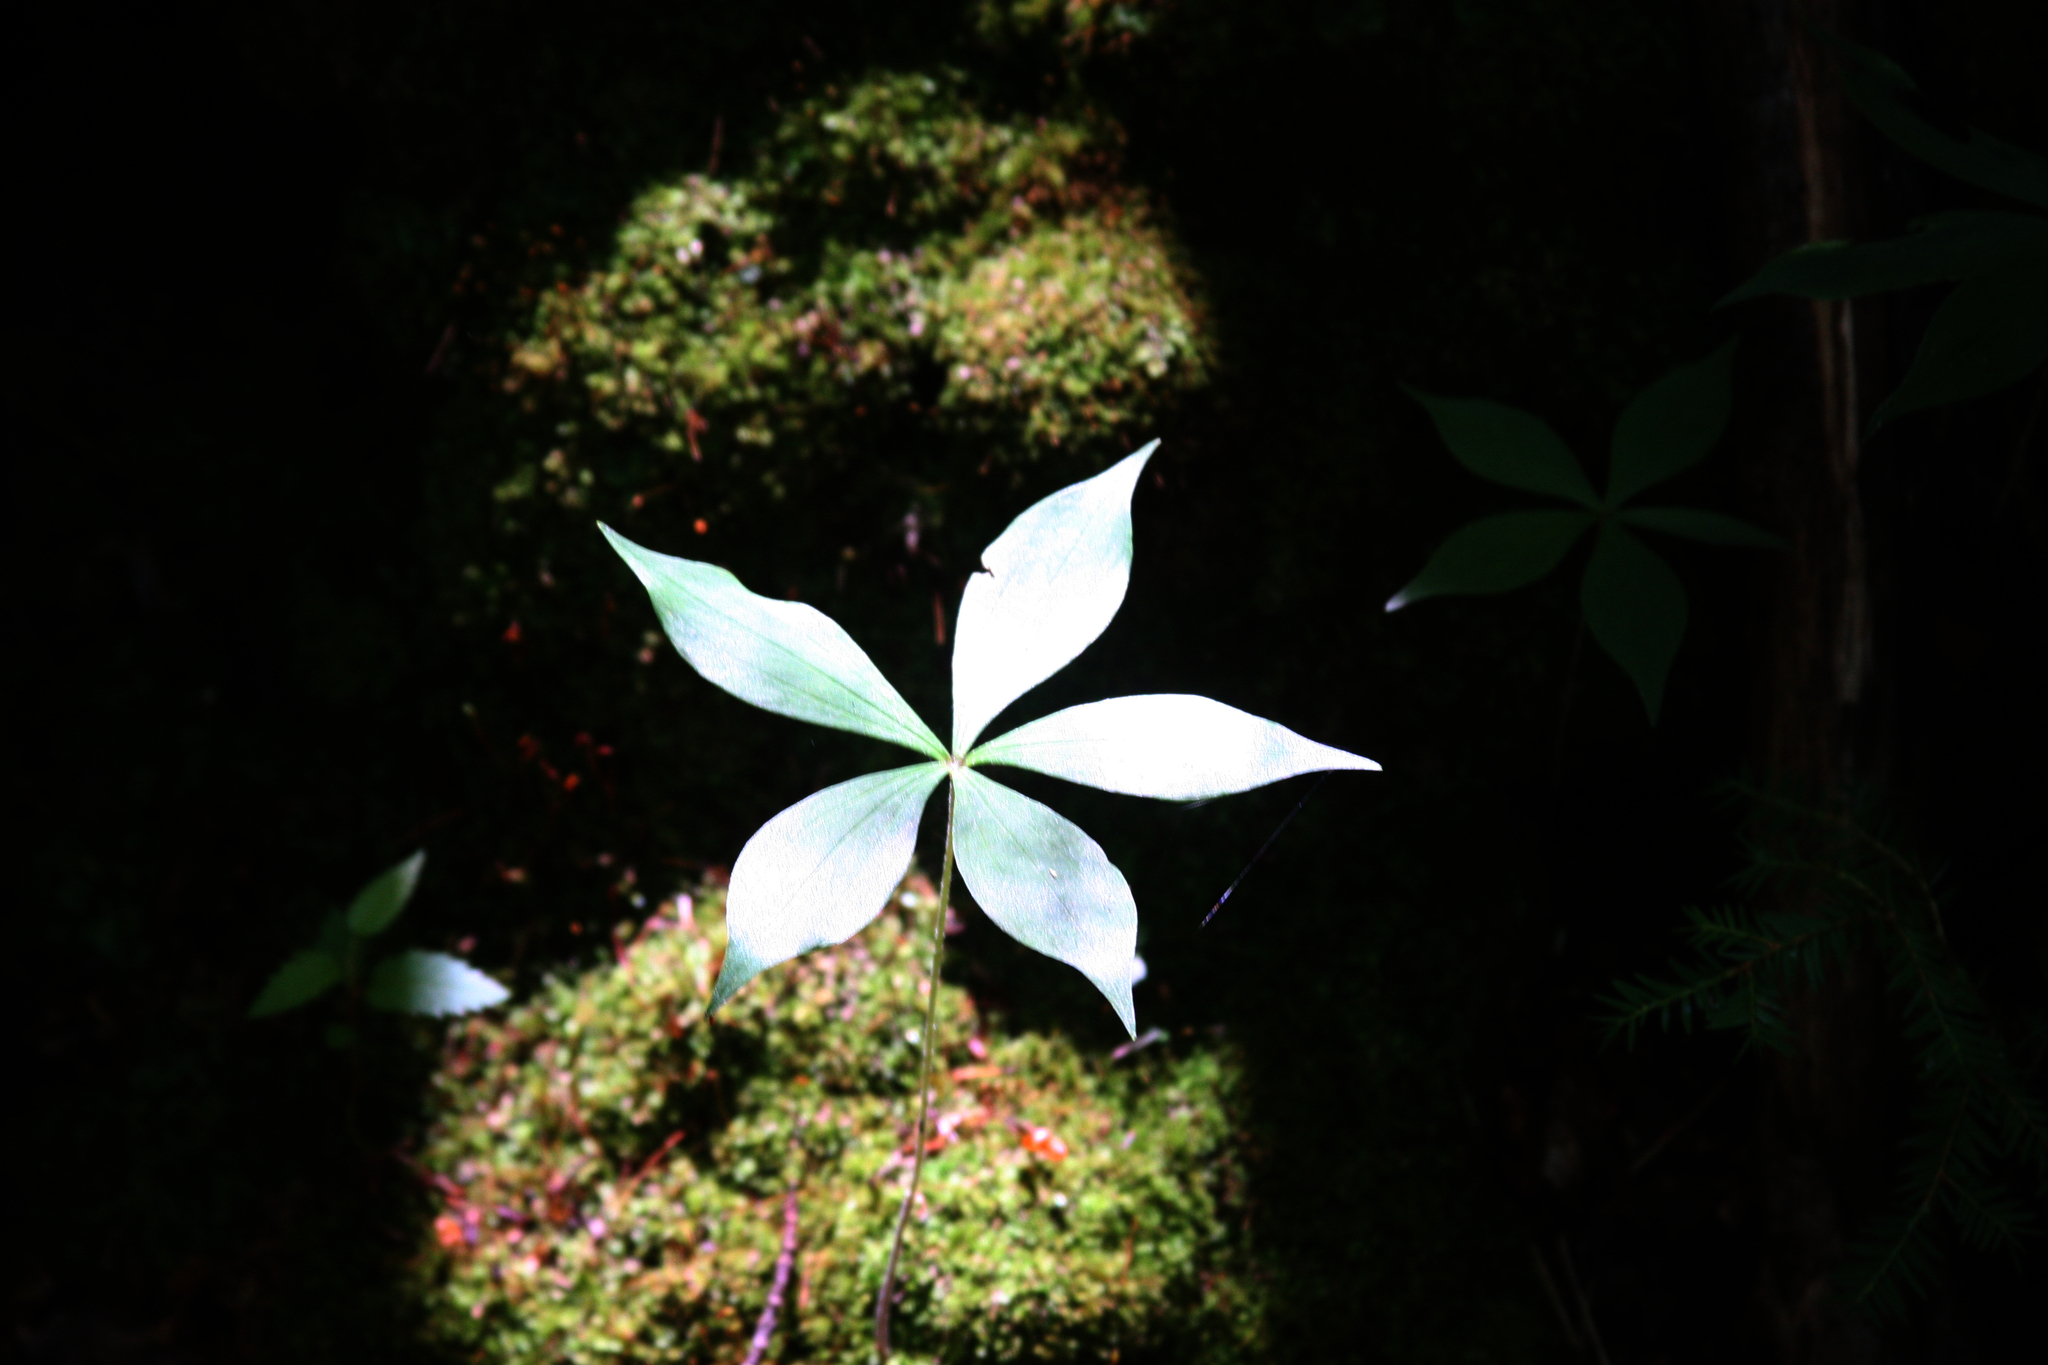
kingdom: Plantae
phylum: Tracheophyta
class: Magnoliopsida
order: Ericales
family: Primulaceae
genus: Lysimachia
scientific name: Lysimachia borealis
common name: American starflower
